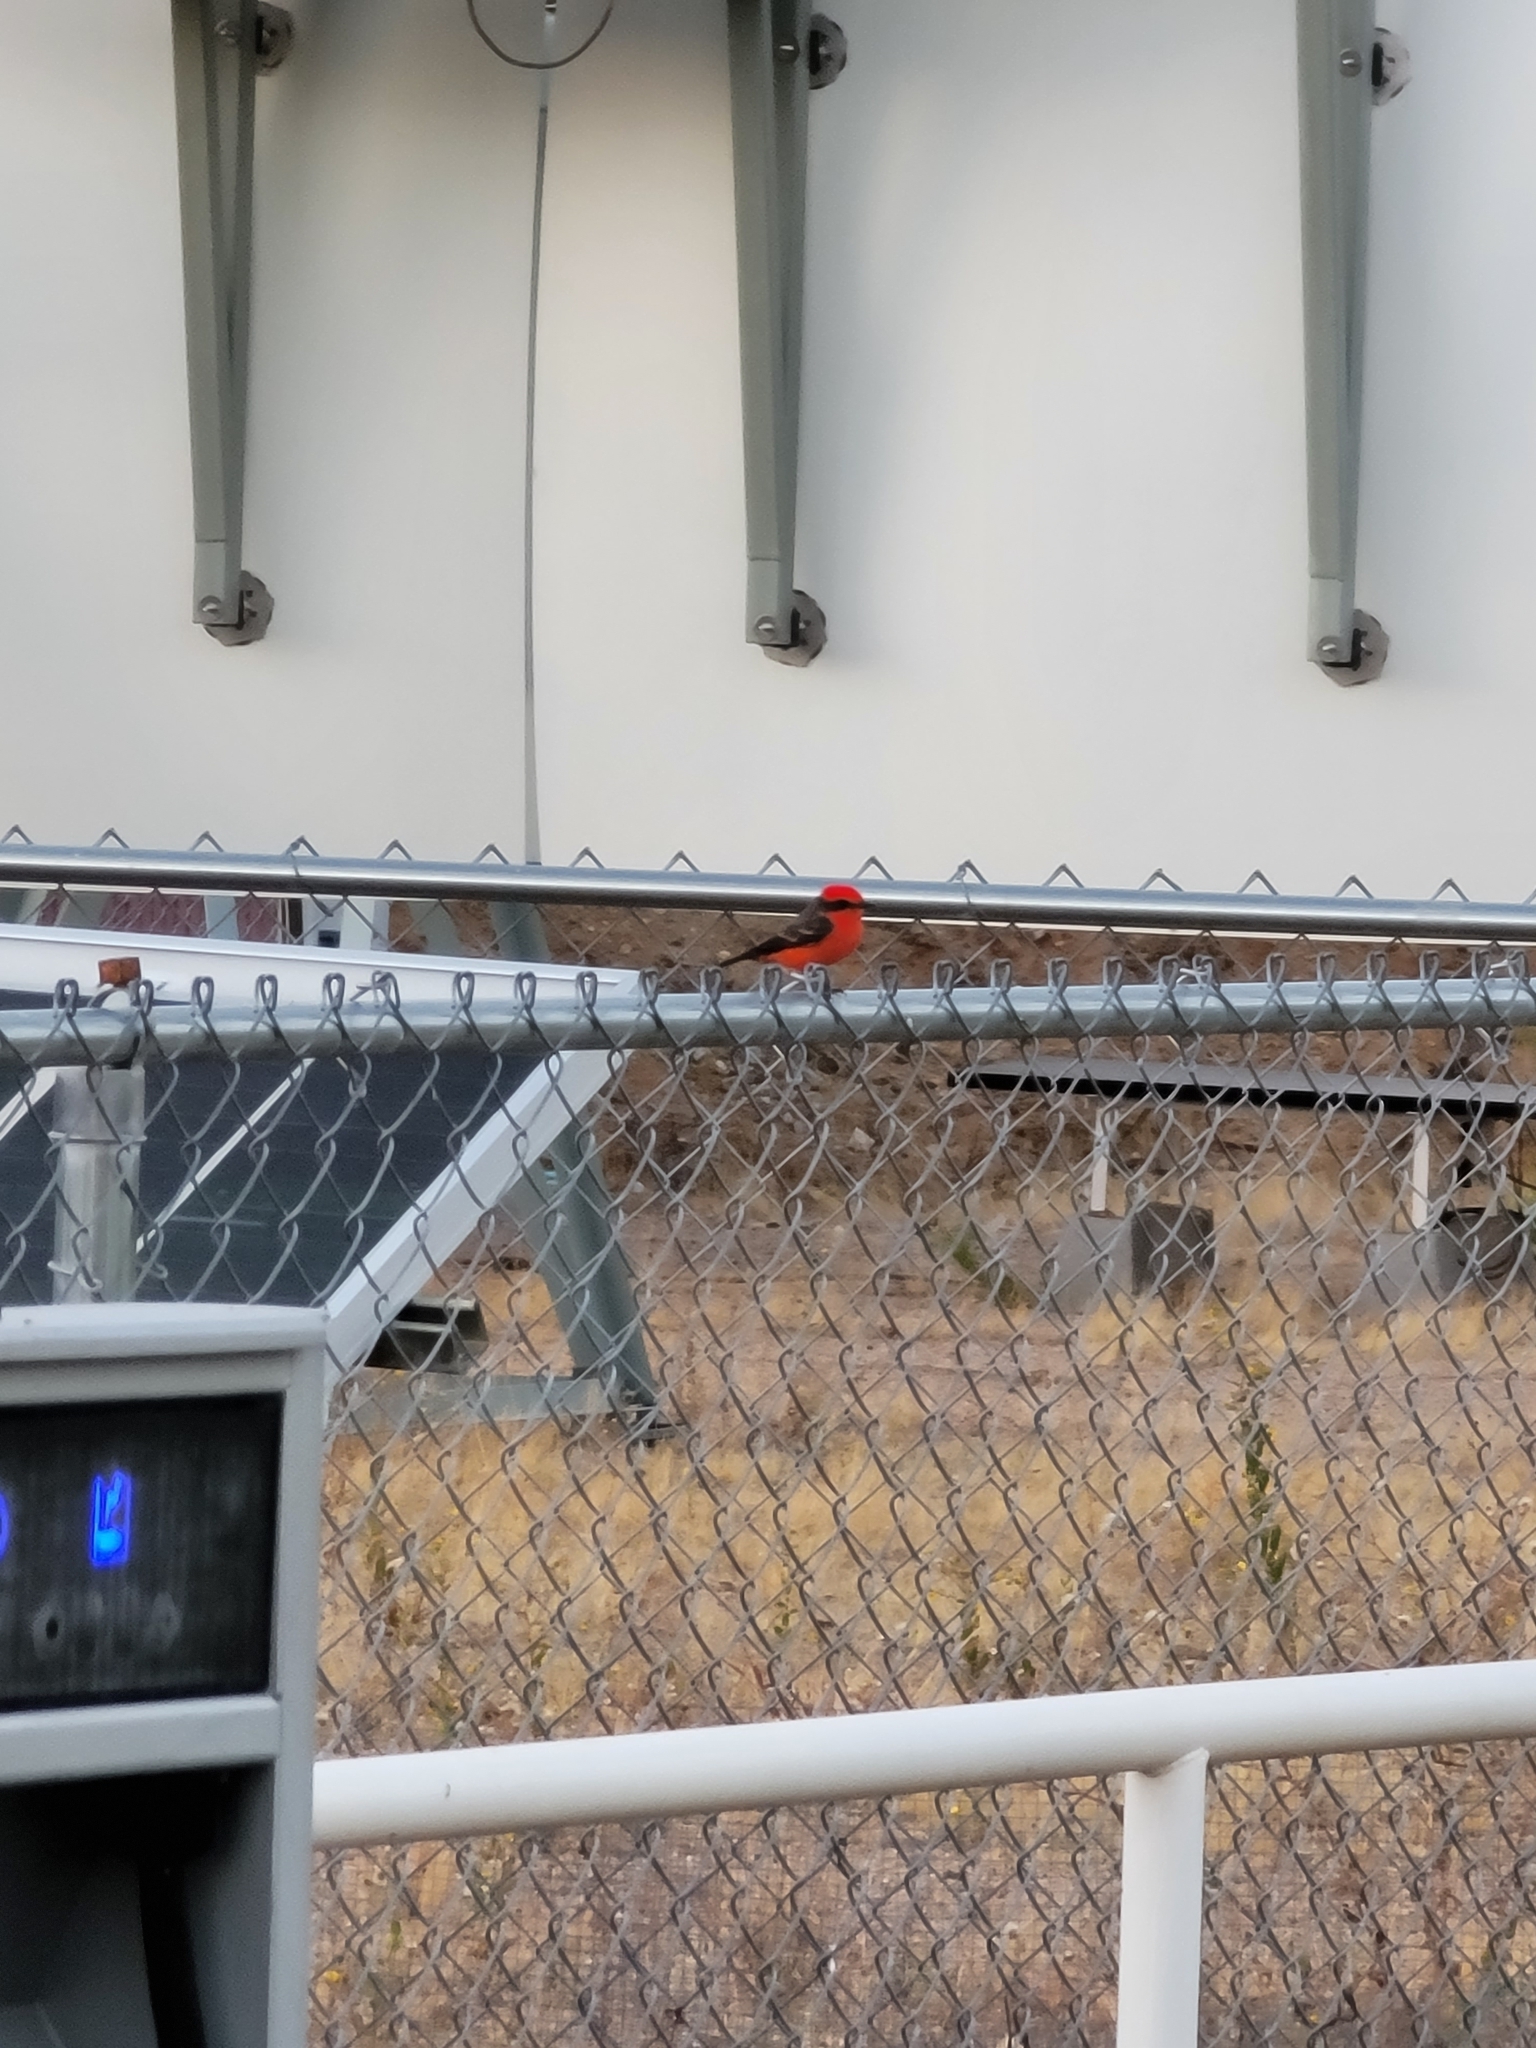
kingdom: Animalia
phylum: Chordata
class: Aves
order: Passeriformes
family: Tyrannidae
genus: Pyrocephalus
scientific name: Pyrocephalus rubinus
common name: Vermilion flycatcher
